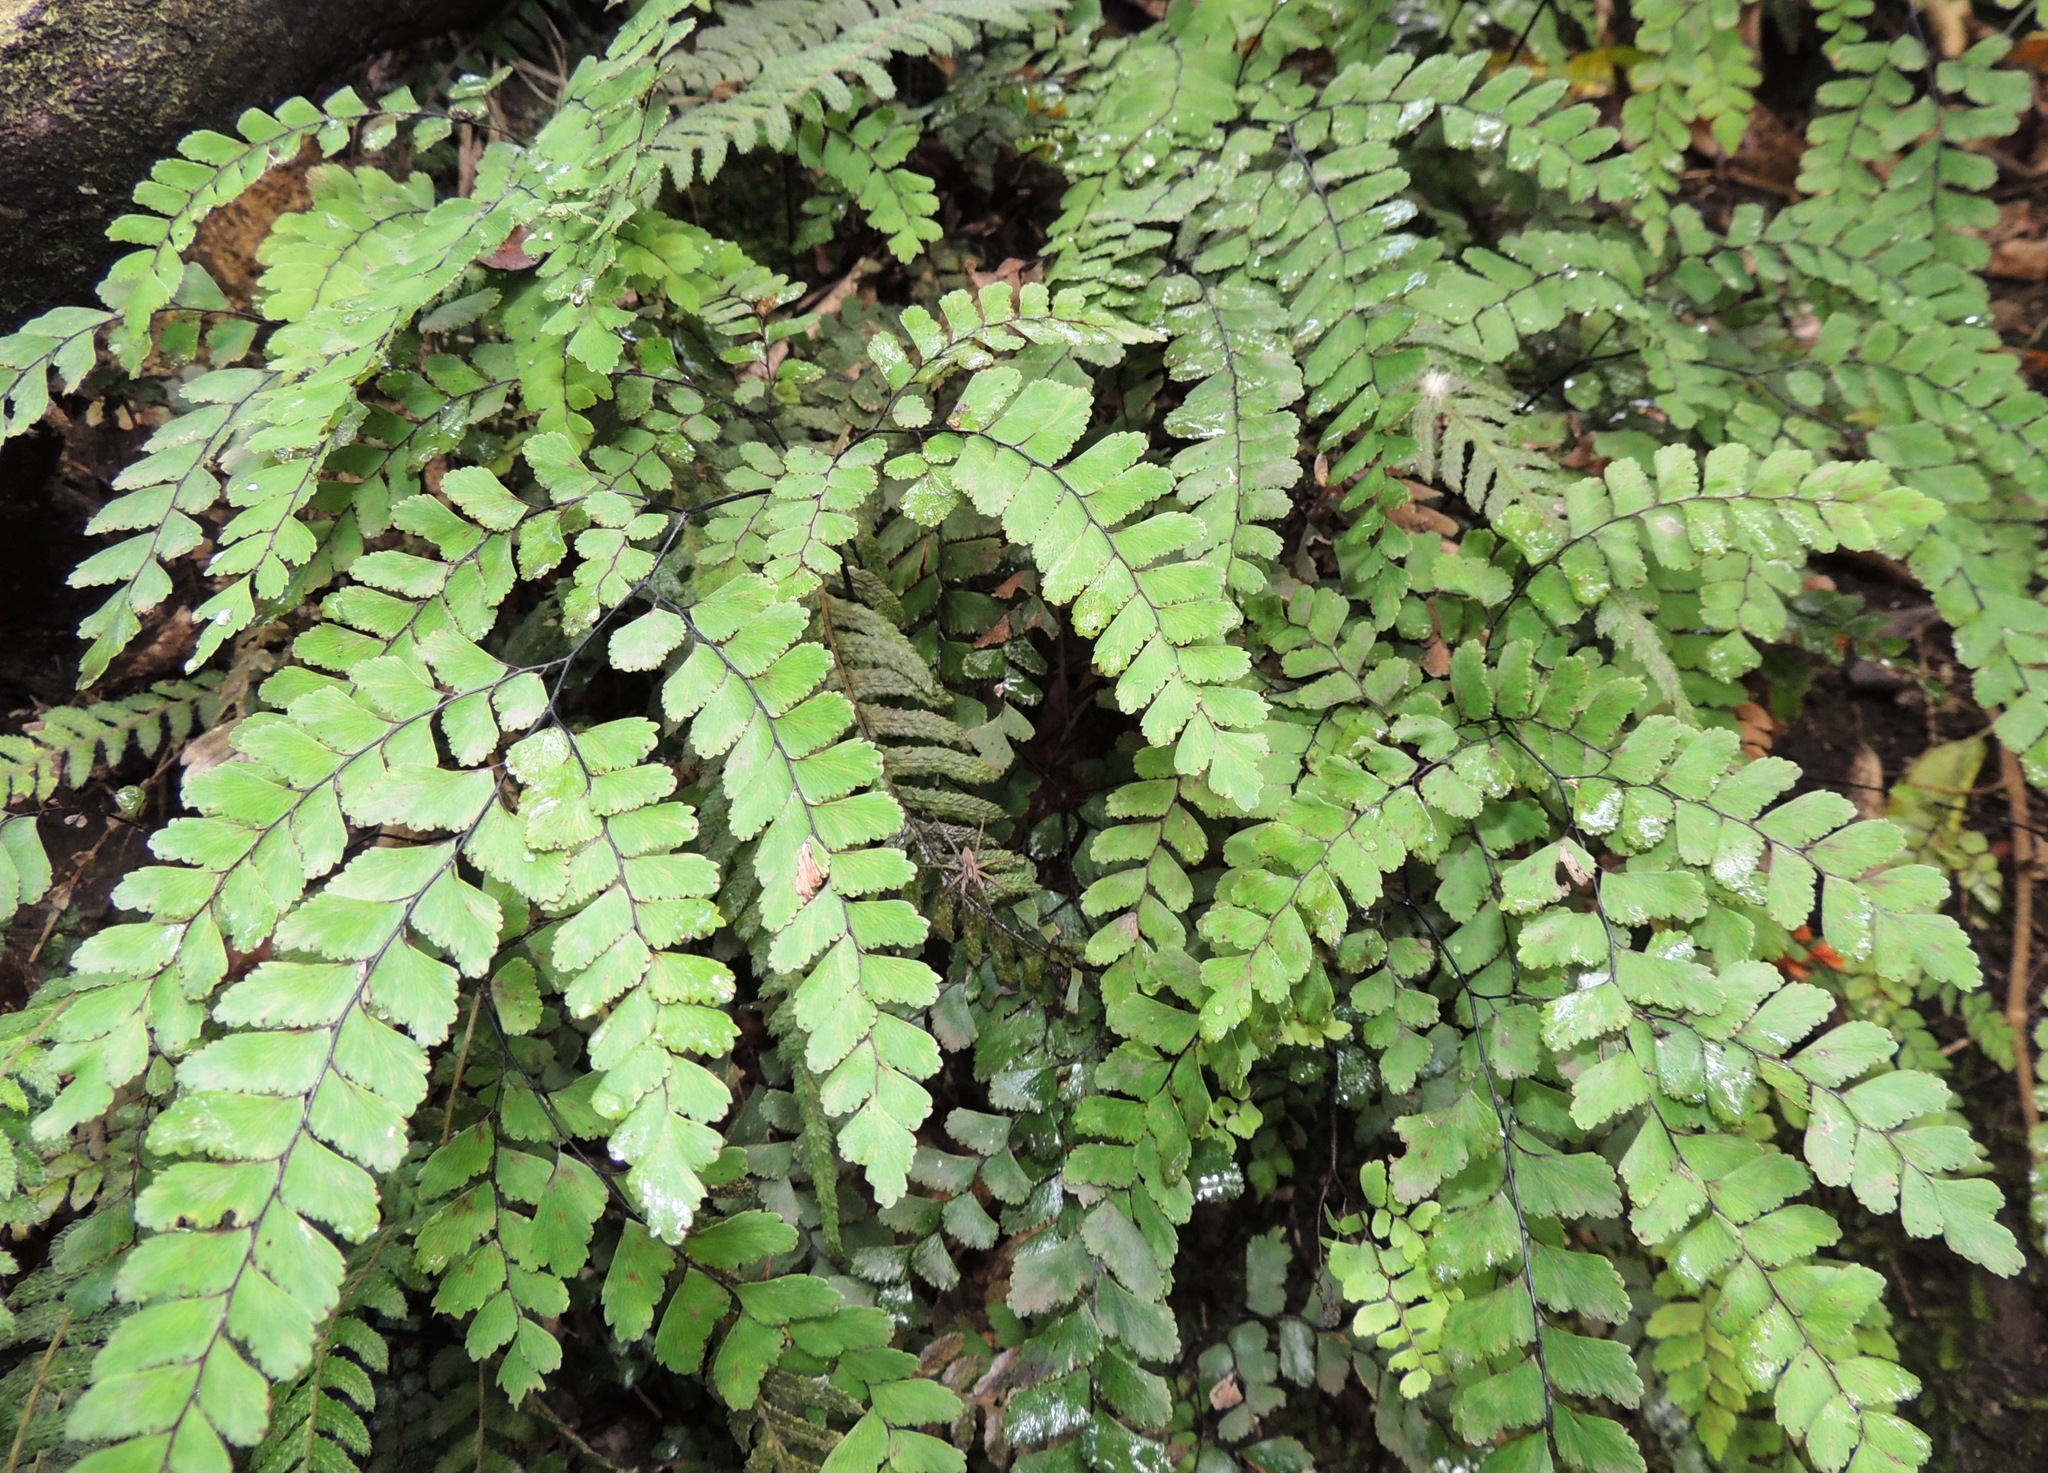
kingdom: Plantae
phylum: Tracheophyta
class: Polypodiopsida
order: Polypodiales
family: Pteridaceae
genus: Adiantum
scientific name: Adiantum cunninghamii
